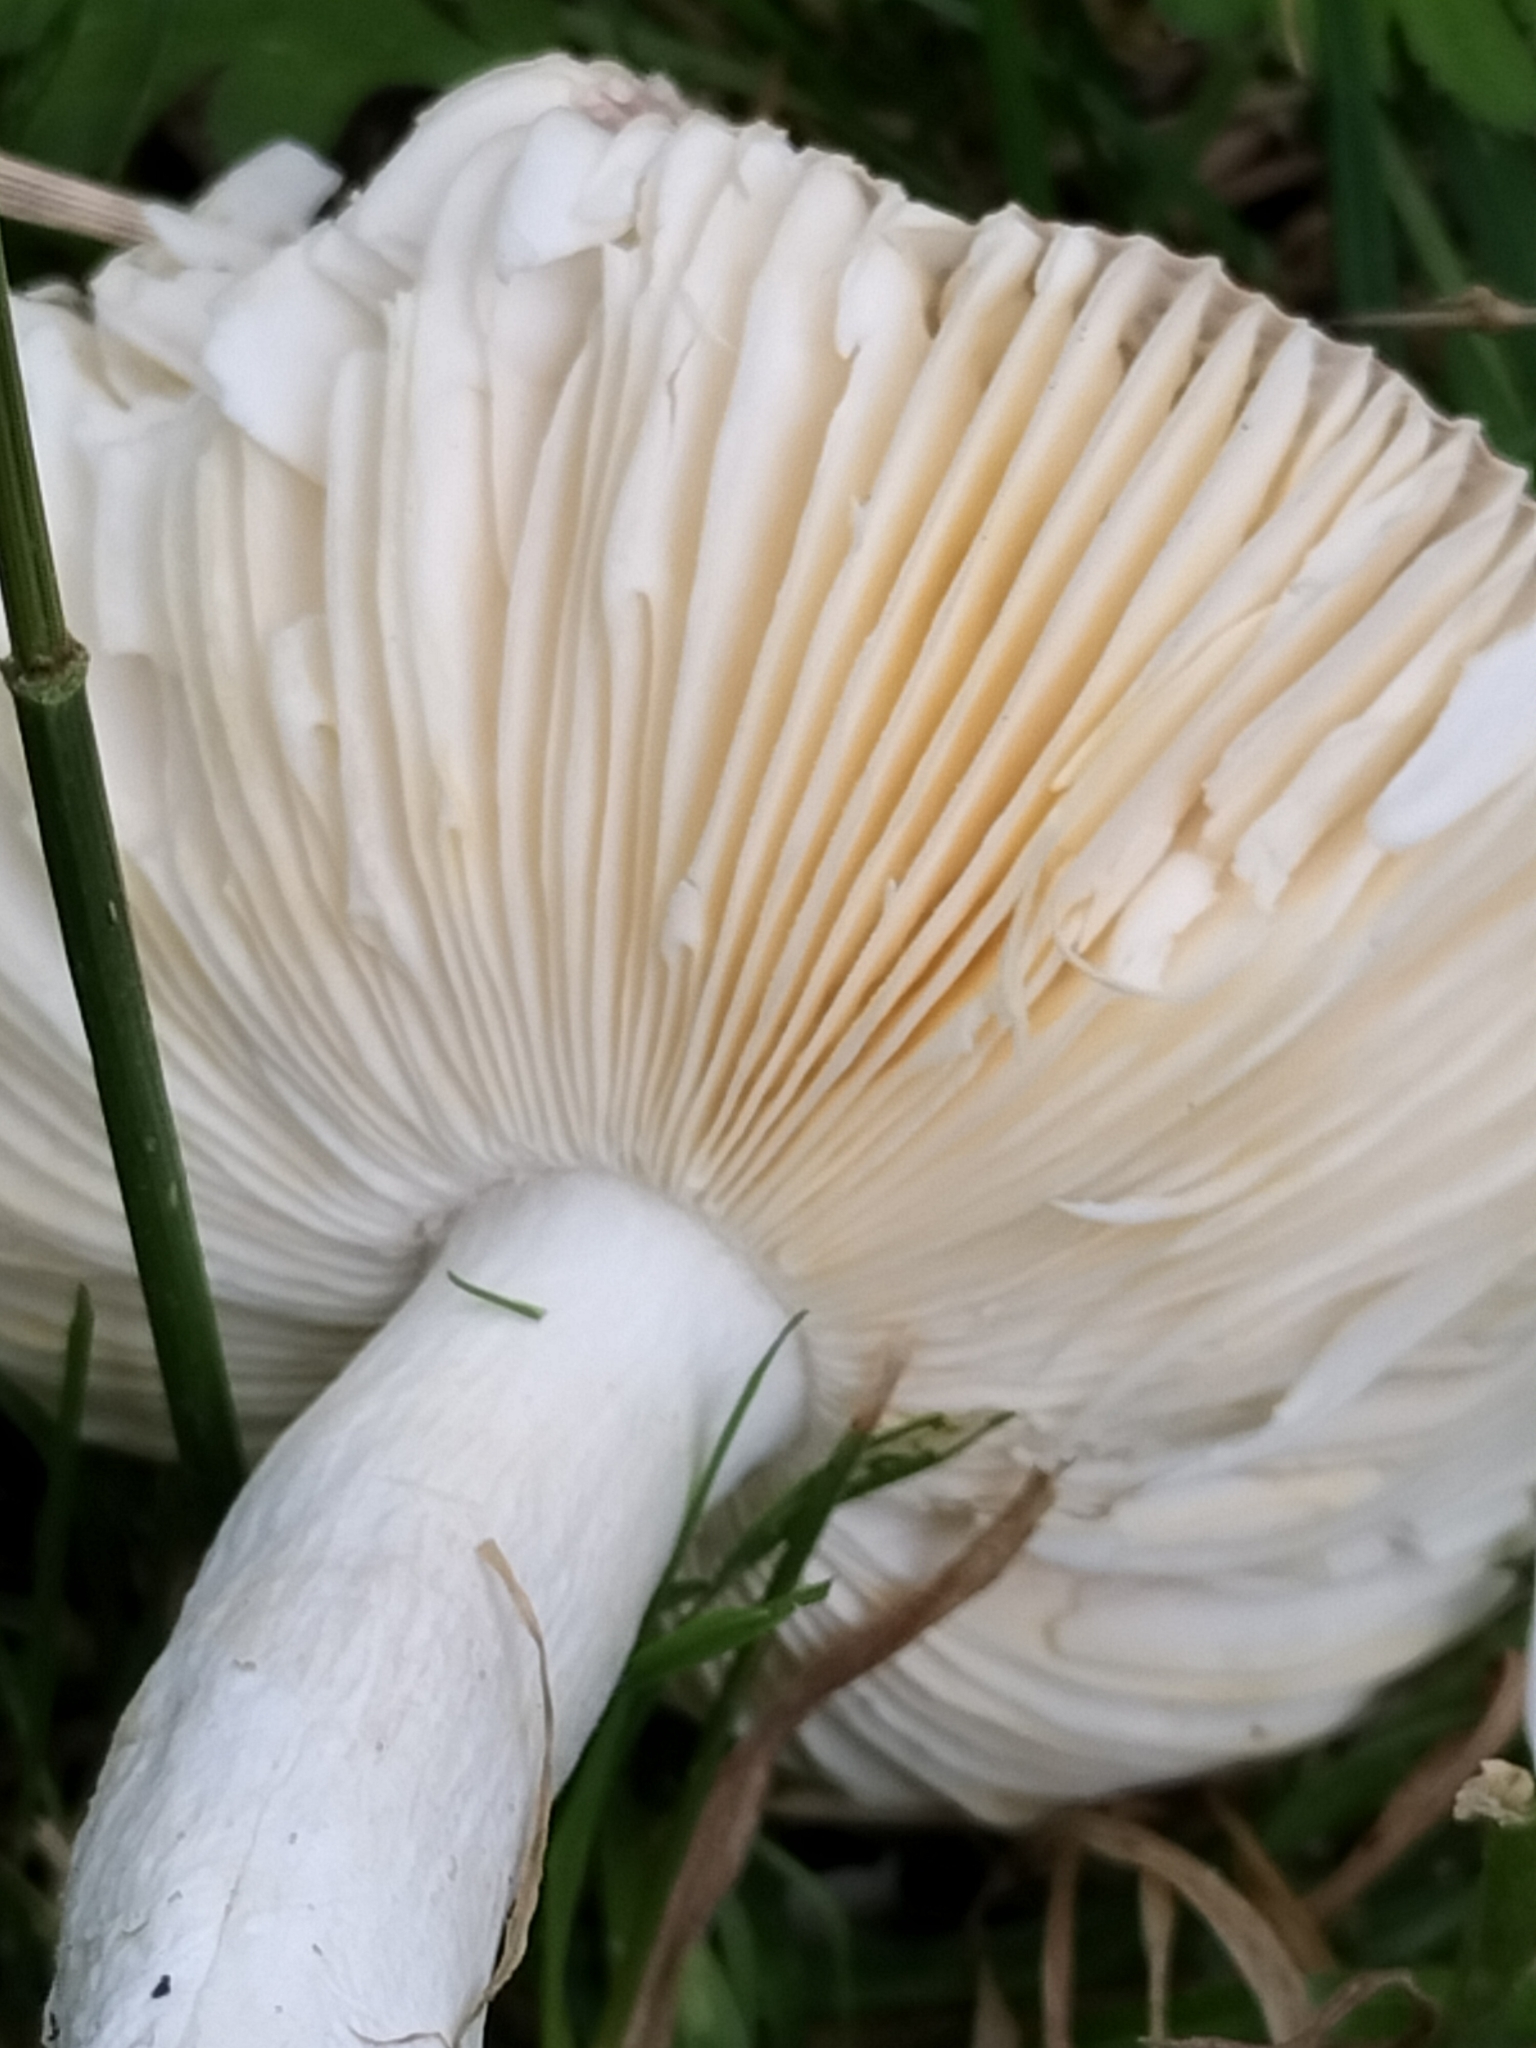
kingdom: Fungi
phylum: Basidiomycota
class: Agaricomycetes
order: Russulales
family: Russulaceae
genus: Russula
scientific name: Russula nitida
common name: Purple swamp brittlegill
